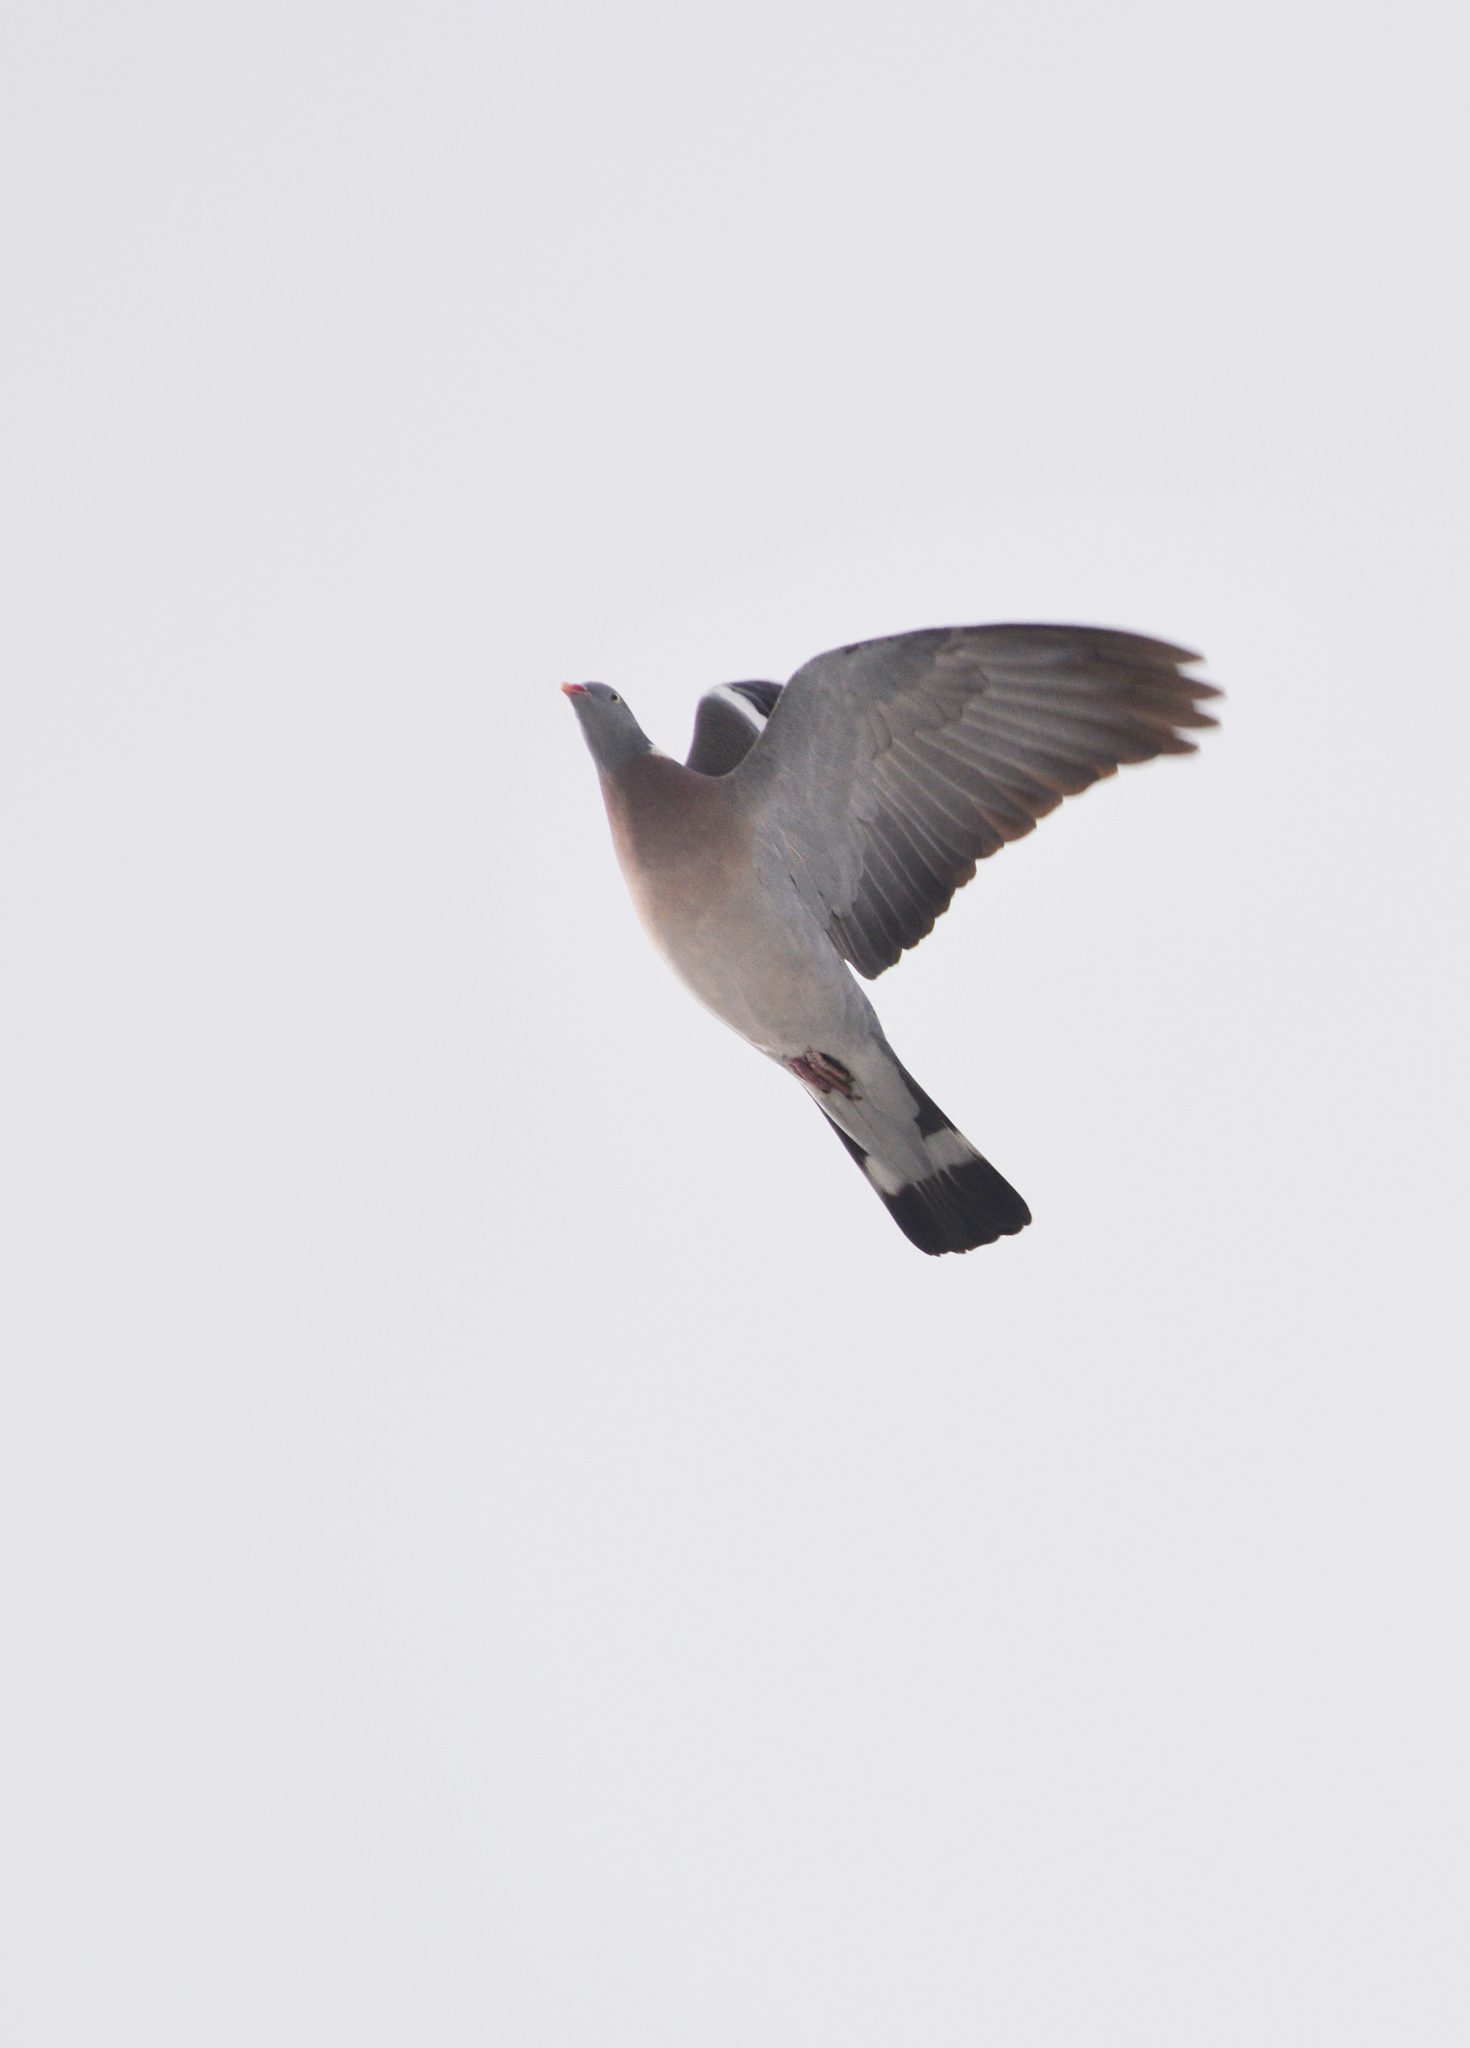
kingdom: Animalia
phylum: Chordata
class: Aves
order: Columbiformes
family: Columbidae
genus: Columba
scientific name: Columba palumbus
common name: Common wood pigeon
